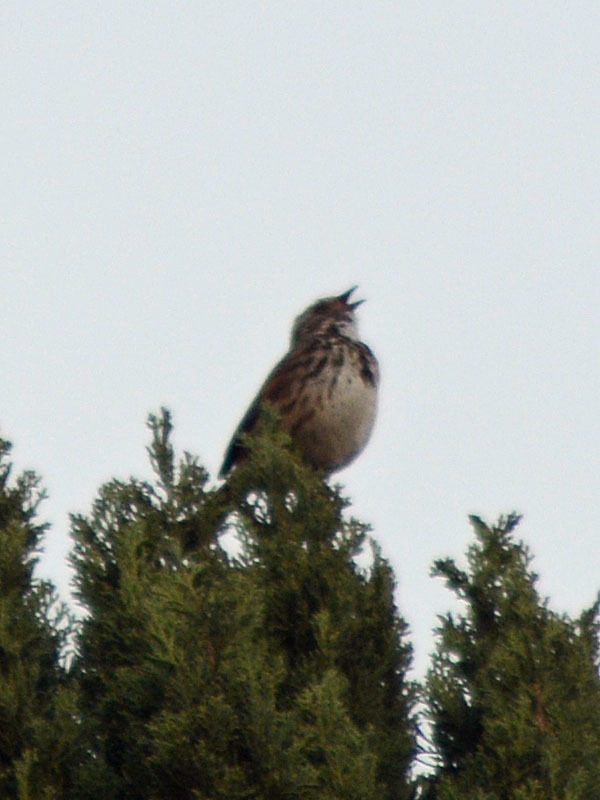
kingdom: Animalia
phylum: Chordata
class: Aves
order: Passeriformes
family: Passerellidae
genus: Melospiza
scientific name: Melospiza melodia
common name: Song sparrow
